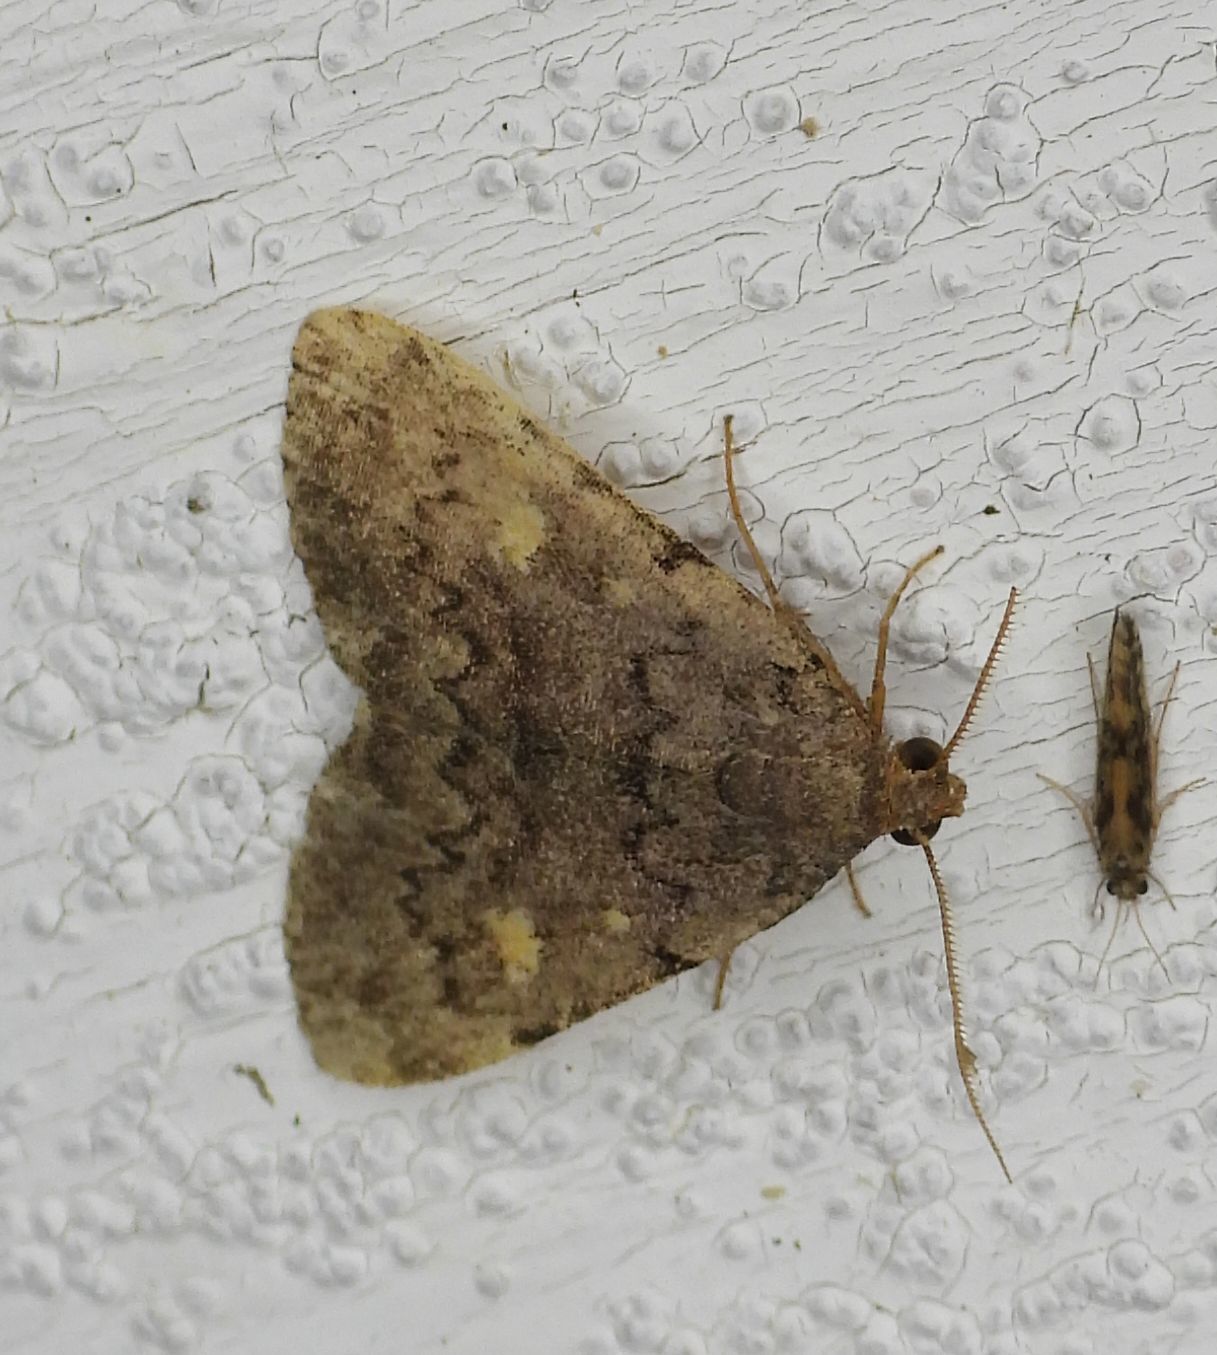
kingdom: Animalia
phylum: Arthropoda
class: Insecta
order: Lepidoptera
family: Erebidae
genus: Idia
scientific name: Idia aemula
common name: Common idia moth
